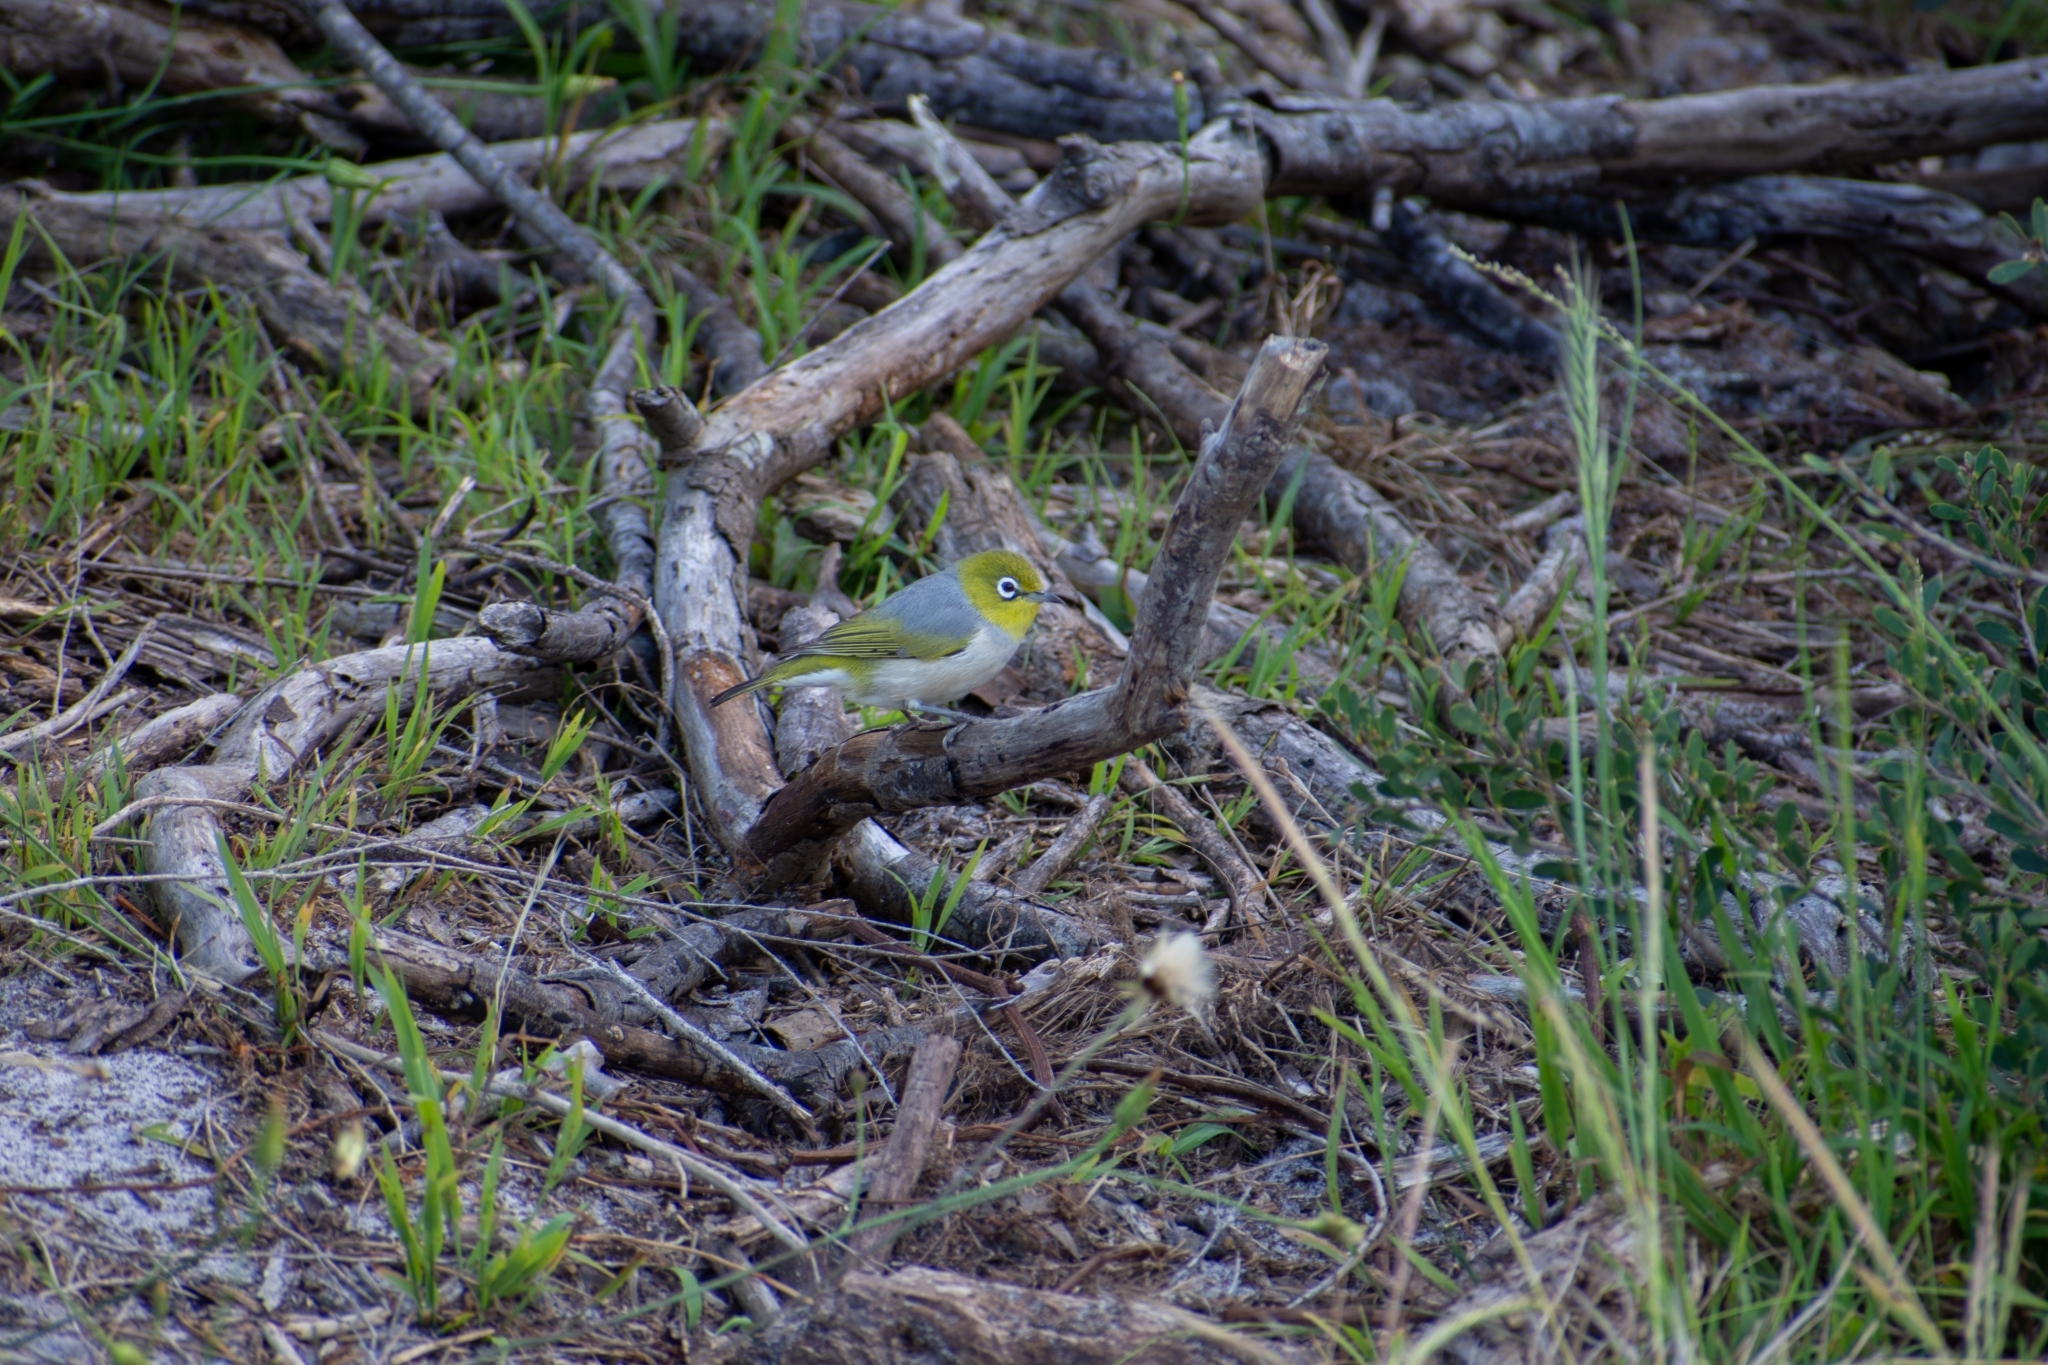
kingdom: Animalia
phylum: Chordata
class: Aves
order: Passeriformes
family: Zosteropidae
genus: Zosterops
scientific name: Zosterops lateralis
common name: Silvereye
